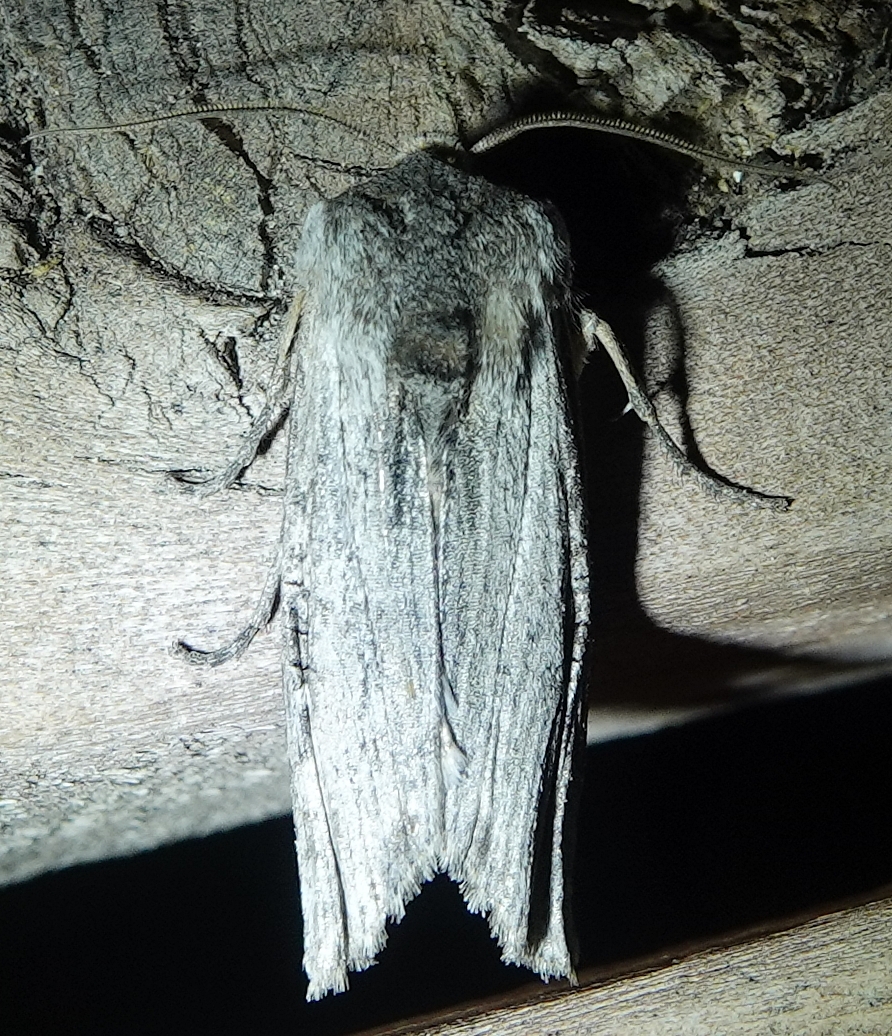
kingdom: Animalia
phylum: Arthropoda
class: Insecta
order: Lepidoptera
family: Noctuidae
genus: Xylena
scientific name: Xylena brucei
